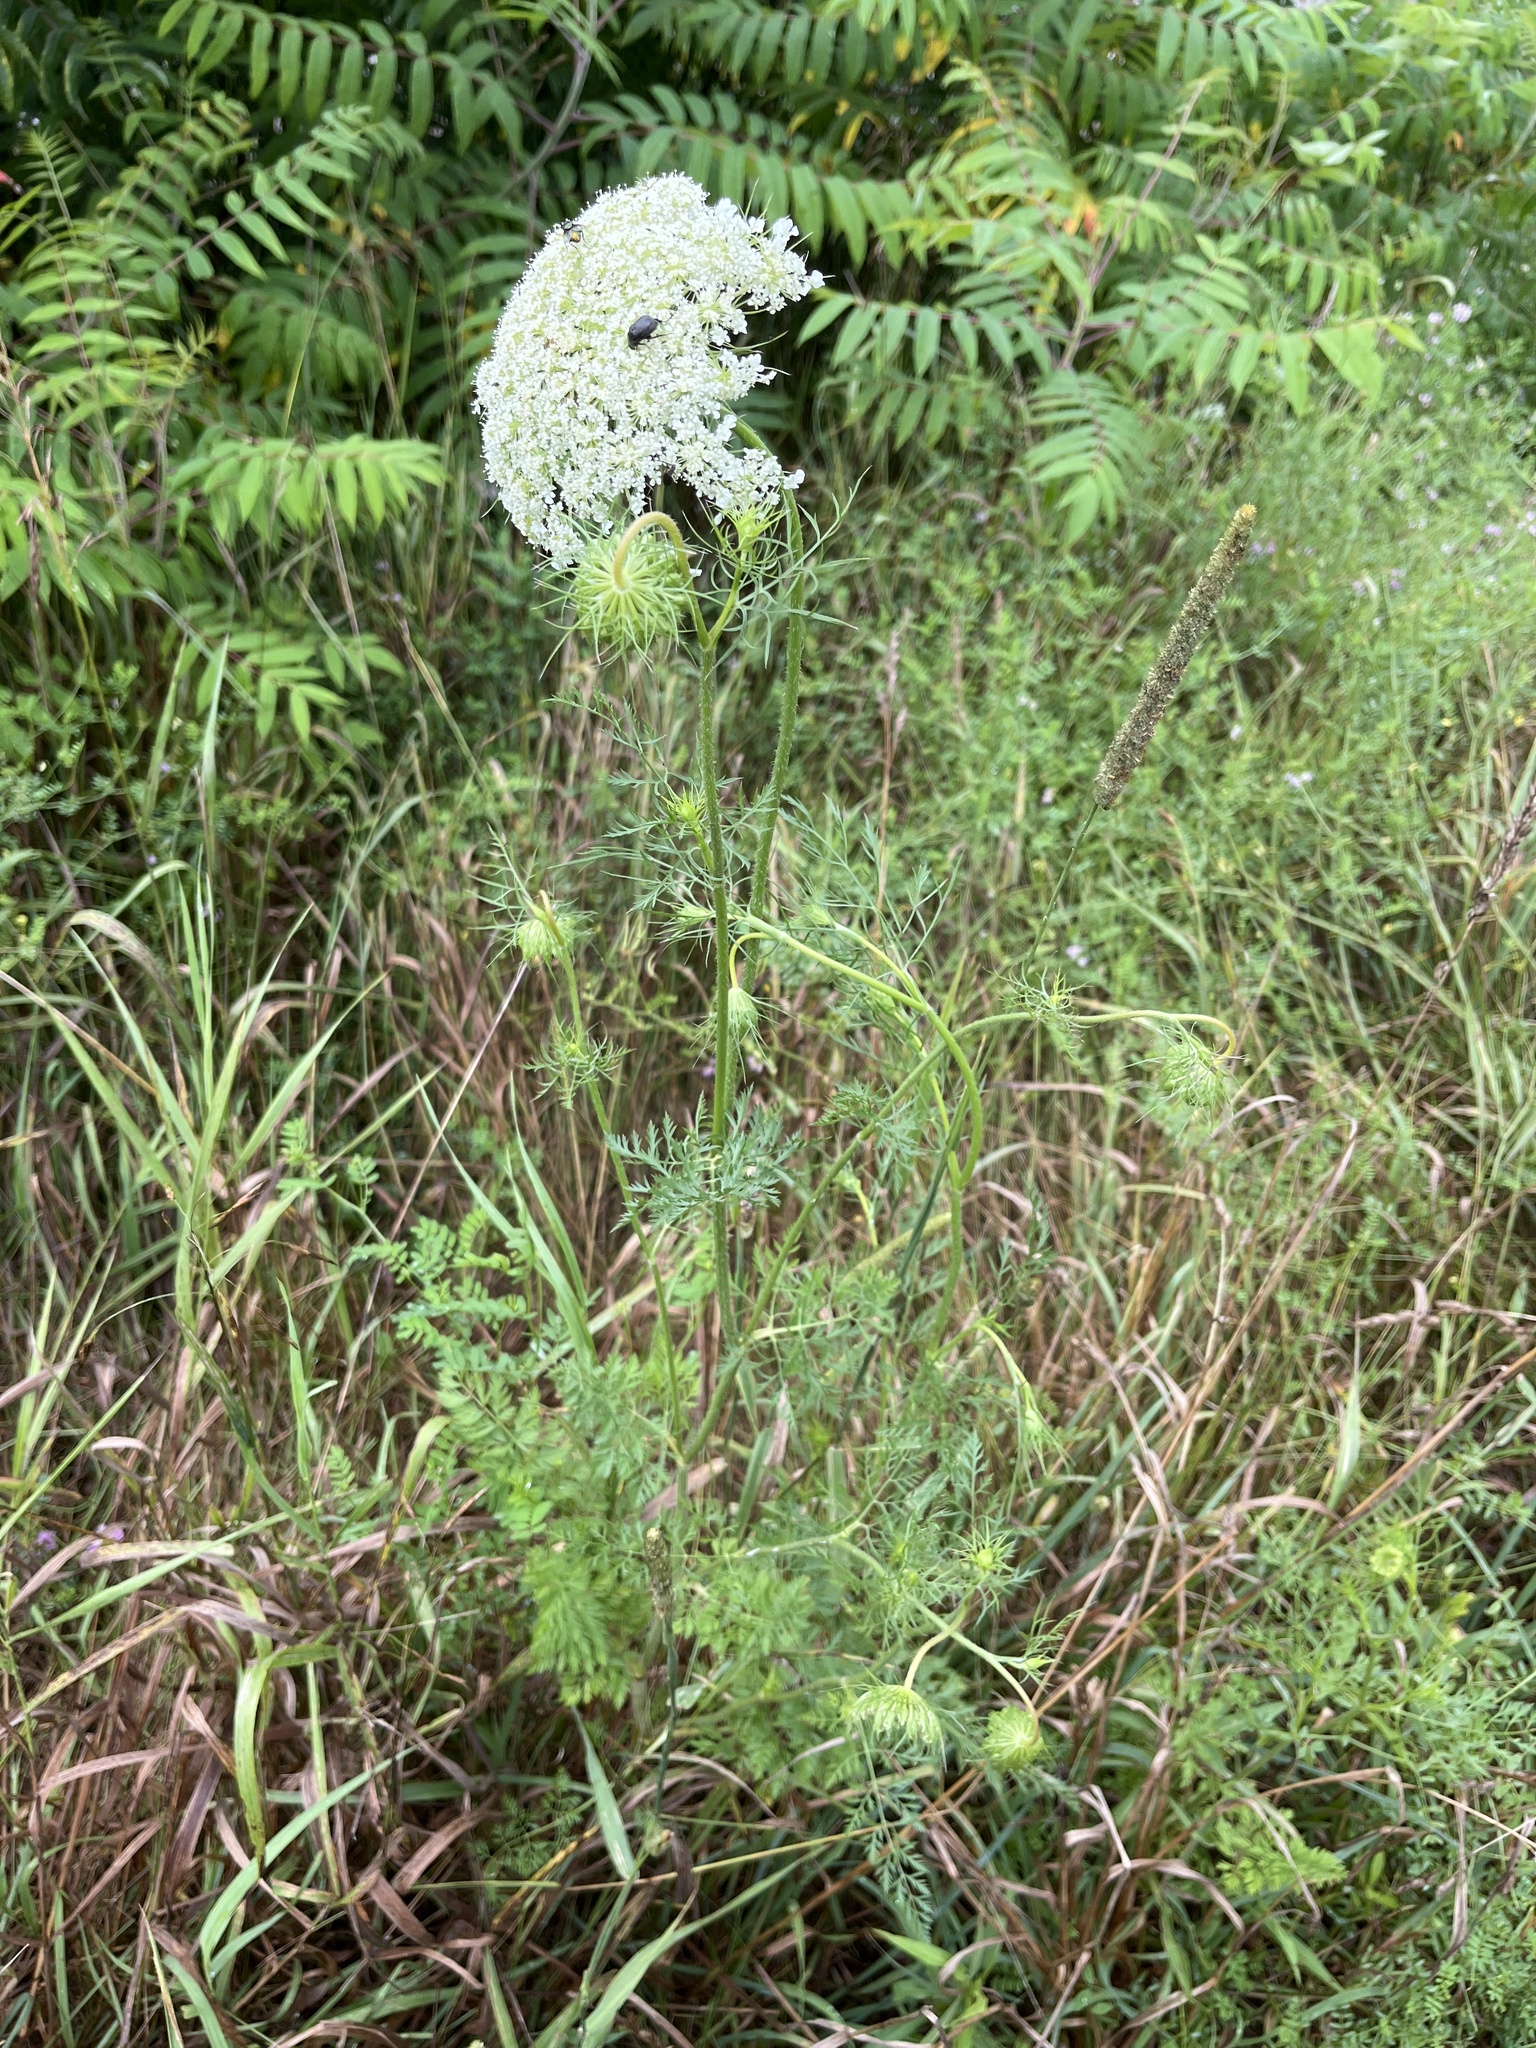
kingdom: Plantae
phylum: Tracheophyta
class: Magnoliopsida
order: Apiales
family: Apiaceae
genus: Daucus
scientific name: Daucus carota
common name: Wild carrot
